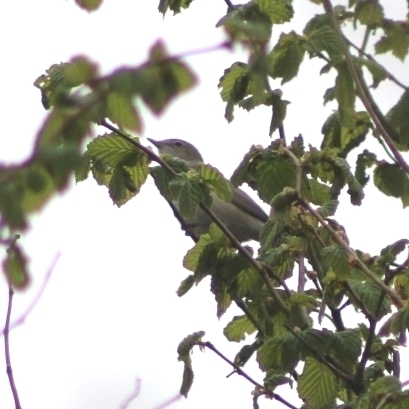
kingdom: Animalia
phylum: Chordata
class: Aves
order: Passeriformes
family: Sylviidae
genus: Sylvia
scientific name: Sylvia borin
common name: Garden warbler
